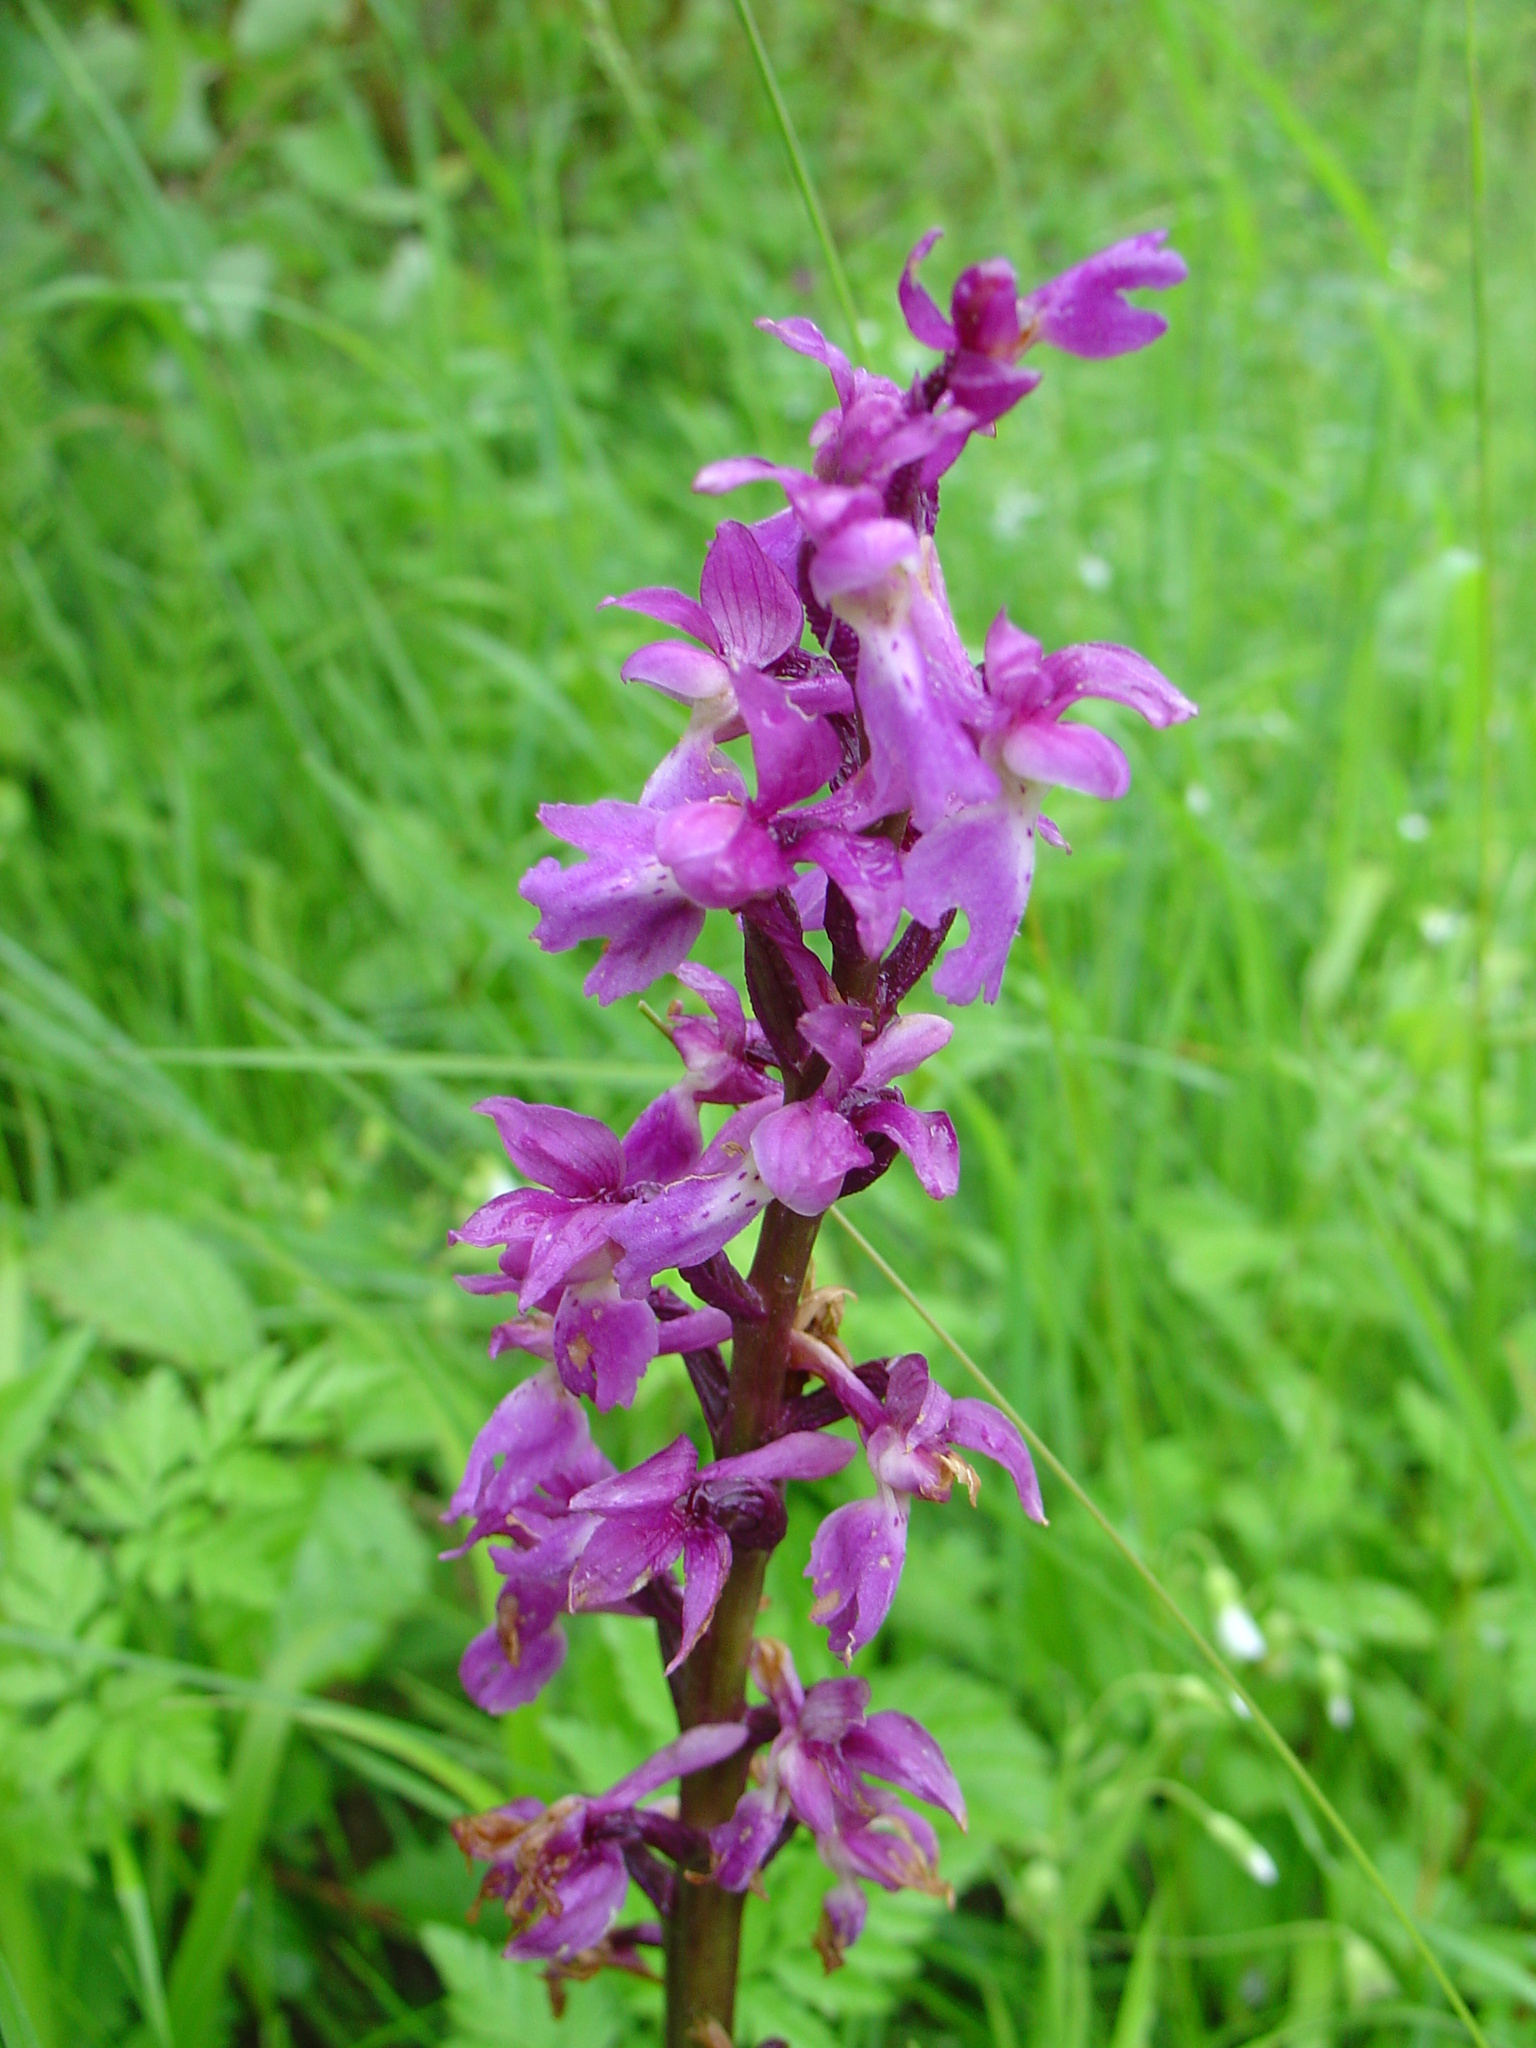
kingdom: Plantae
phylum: Tracheophyta
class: Liliopsida
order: Asparagales
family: Orchidaceae
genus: Orchis
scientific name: Orchis mascula
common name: Early-purple orchid
